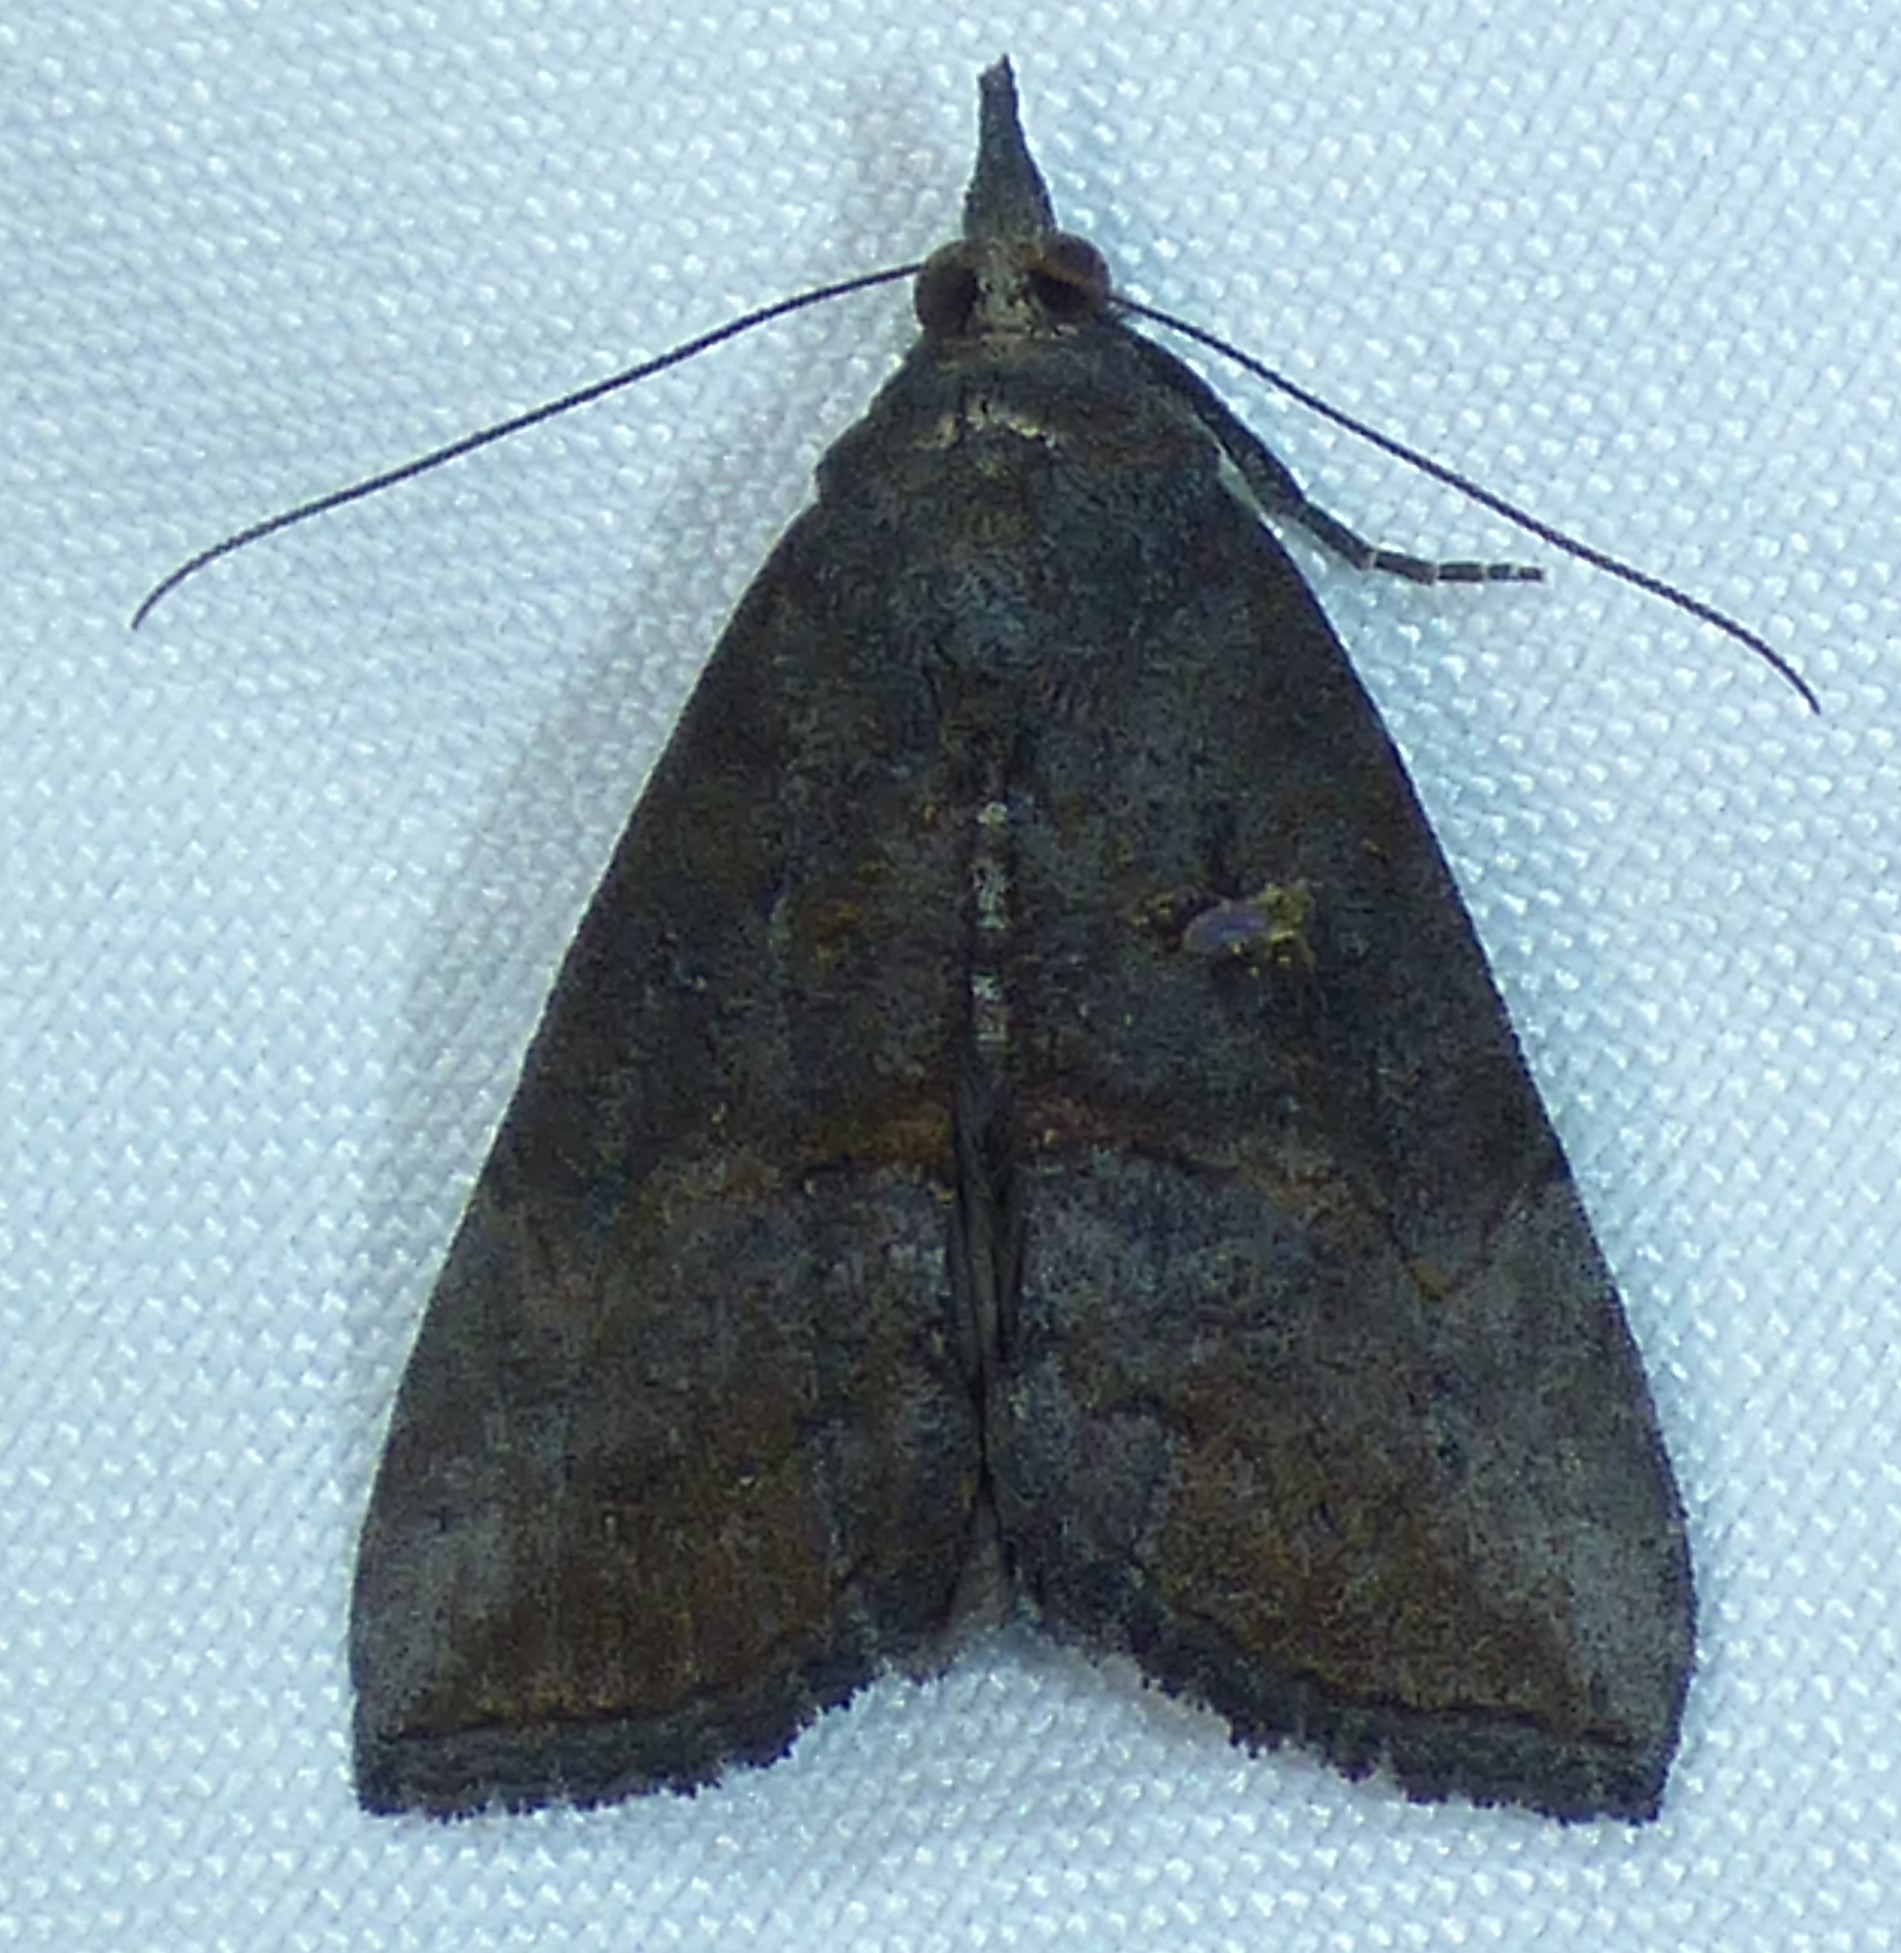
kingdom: Animalia
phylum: Arthropoda
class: Insecta
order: Lepidoptera
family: Erebidae
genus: Hypena
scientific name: Hypena scabra
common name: Green cloverworm
